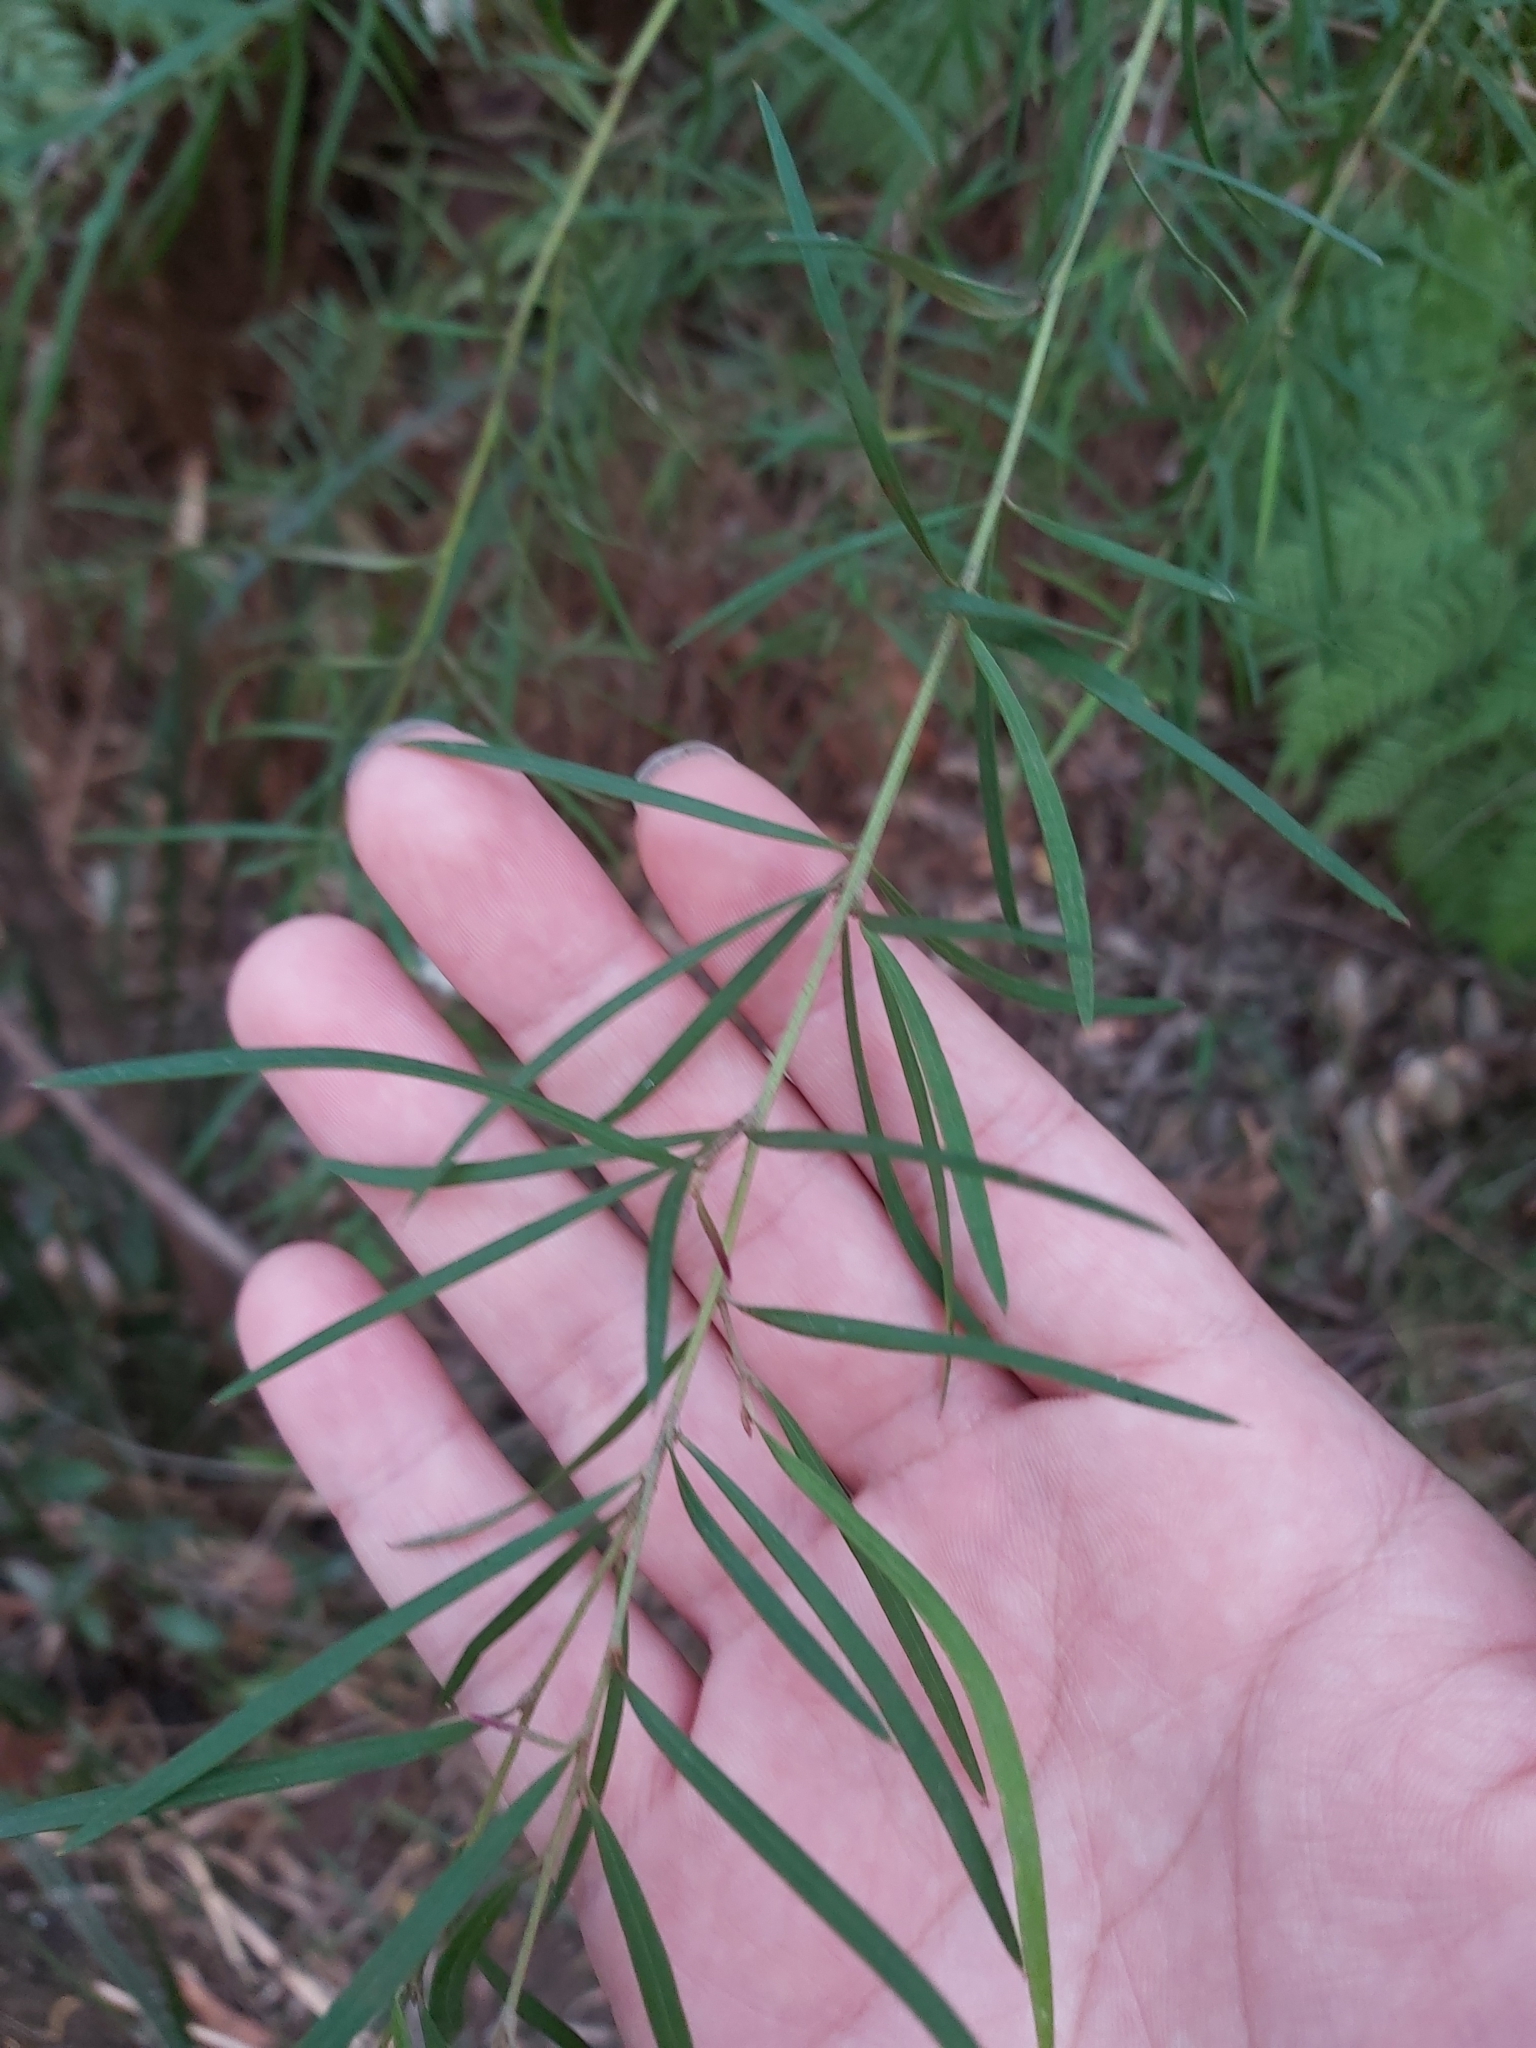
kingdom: Plantae
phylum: Tracheophyta
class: Magnoliopsida
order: Proteales
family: Proteaceae
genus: Grevillea
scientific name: Grevillea linearifolia
